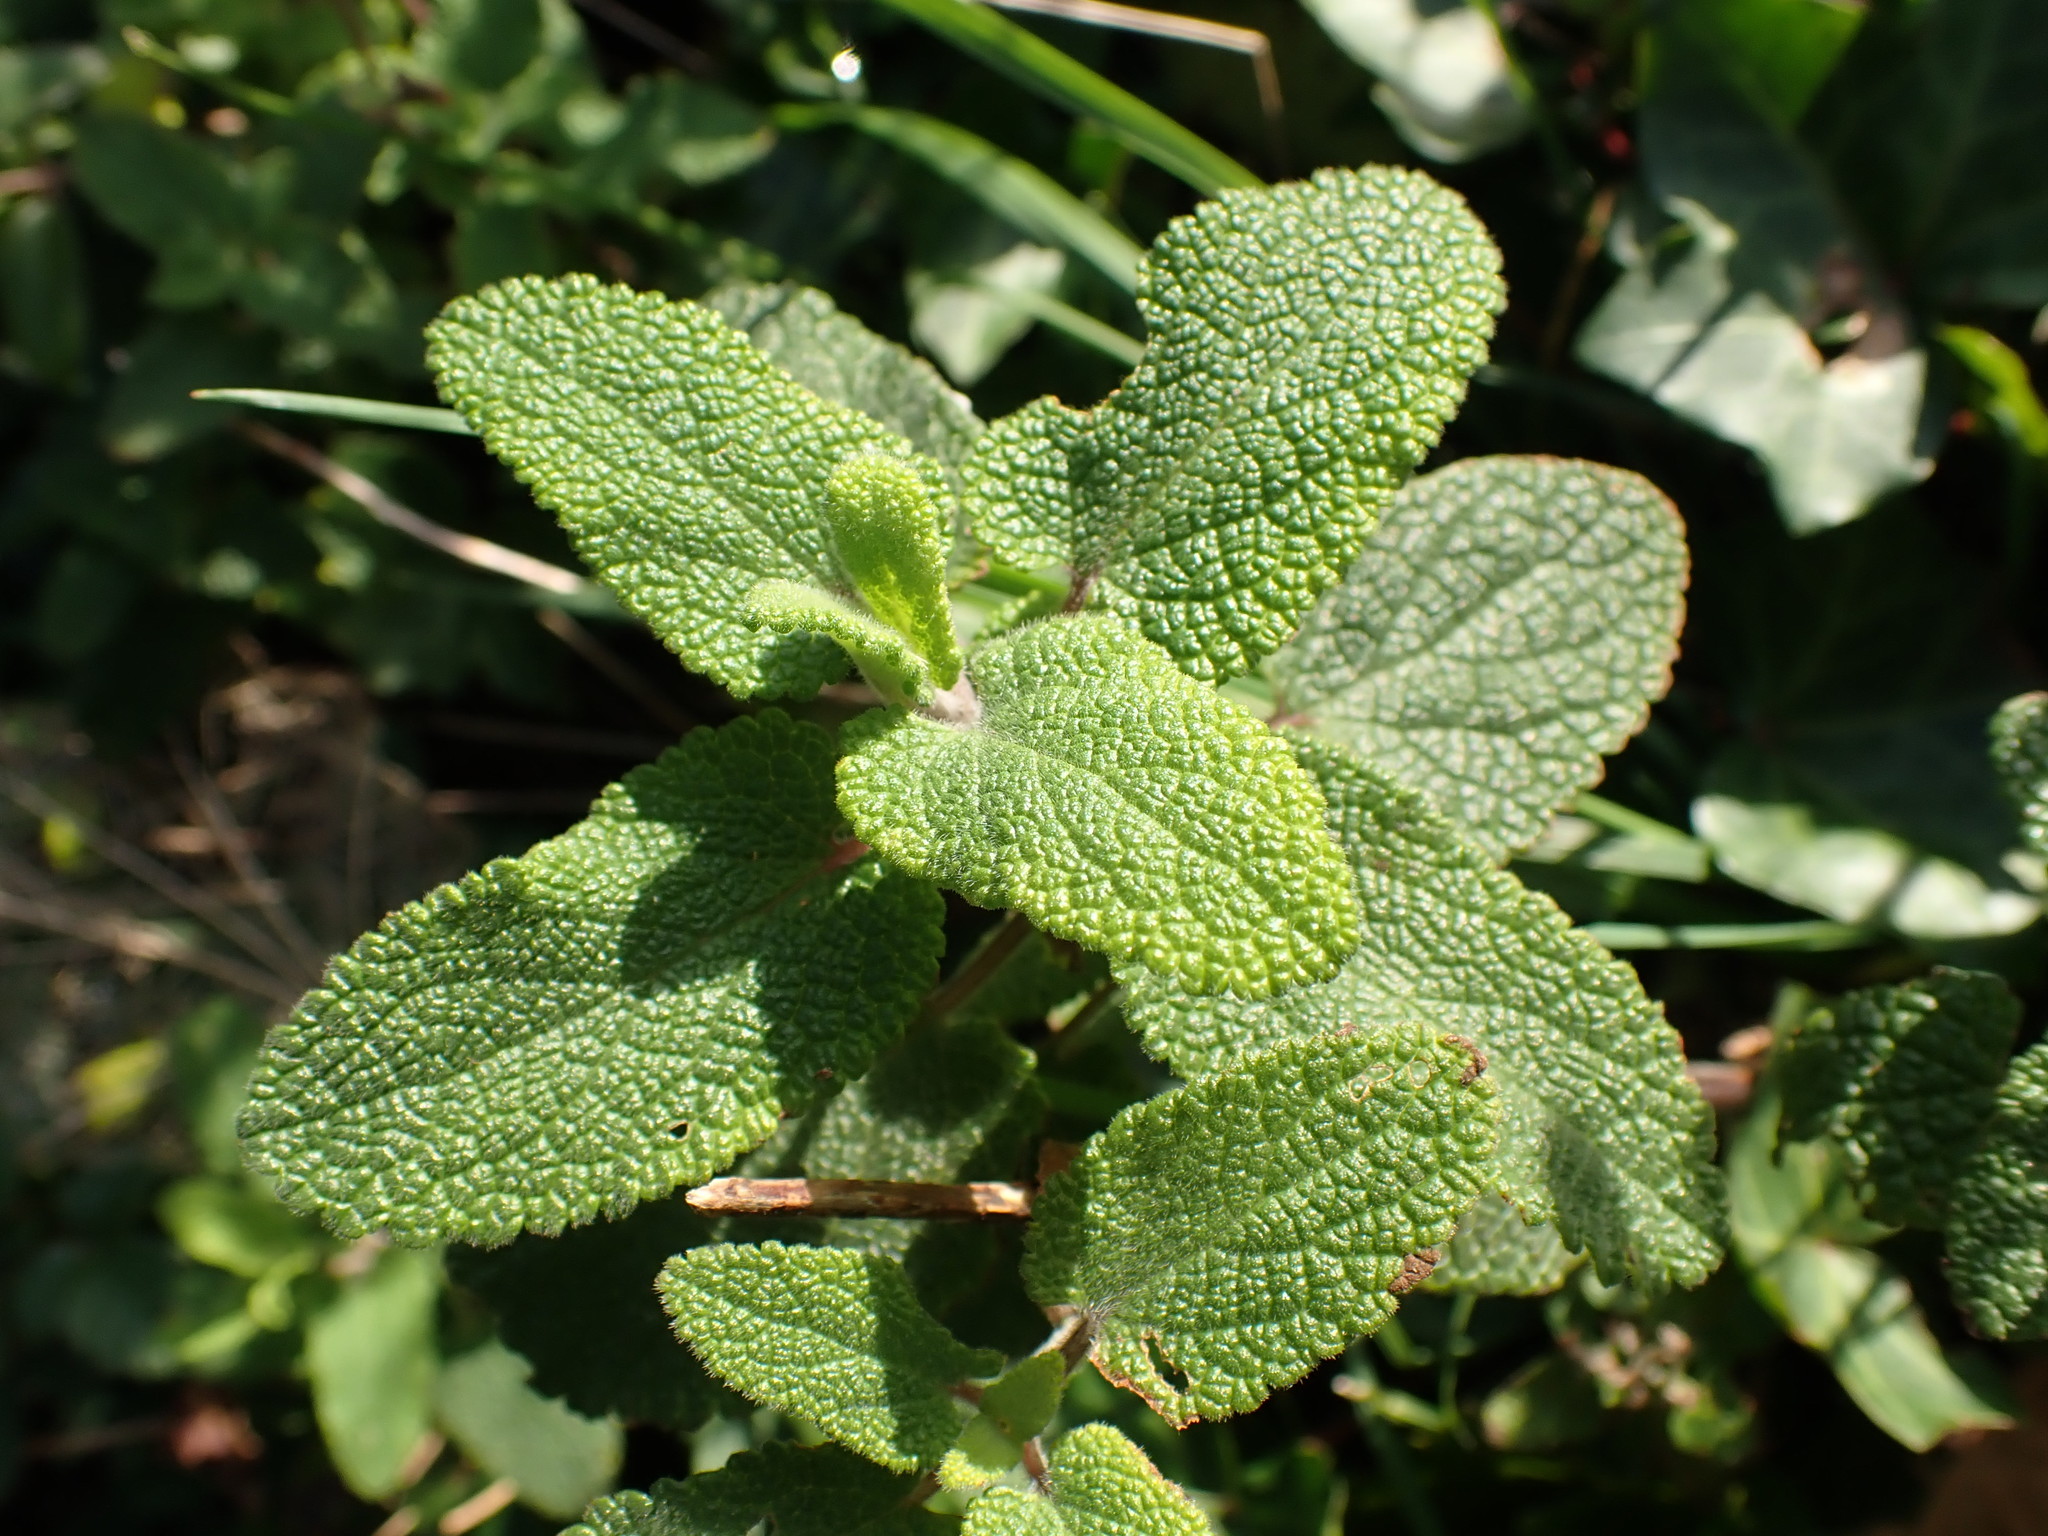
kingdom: Plantae
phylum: Tracheophyta
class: Magnoliopsida
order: Lamiales
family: Lamiaceae
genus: Teucrium
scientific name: Teucrium scorodonia
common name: Woodland germander
